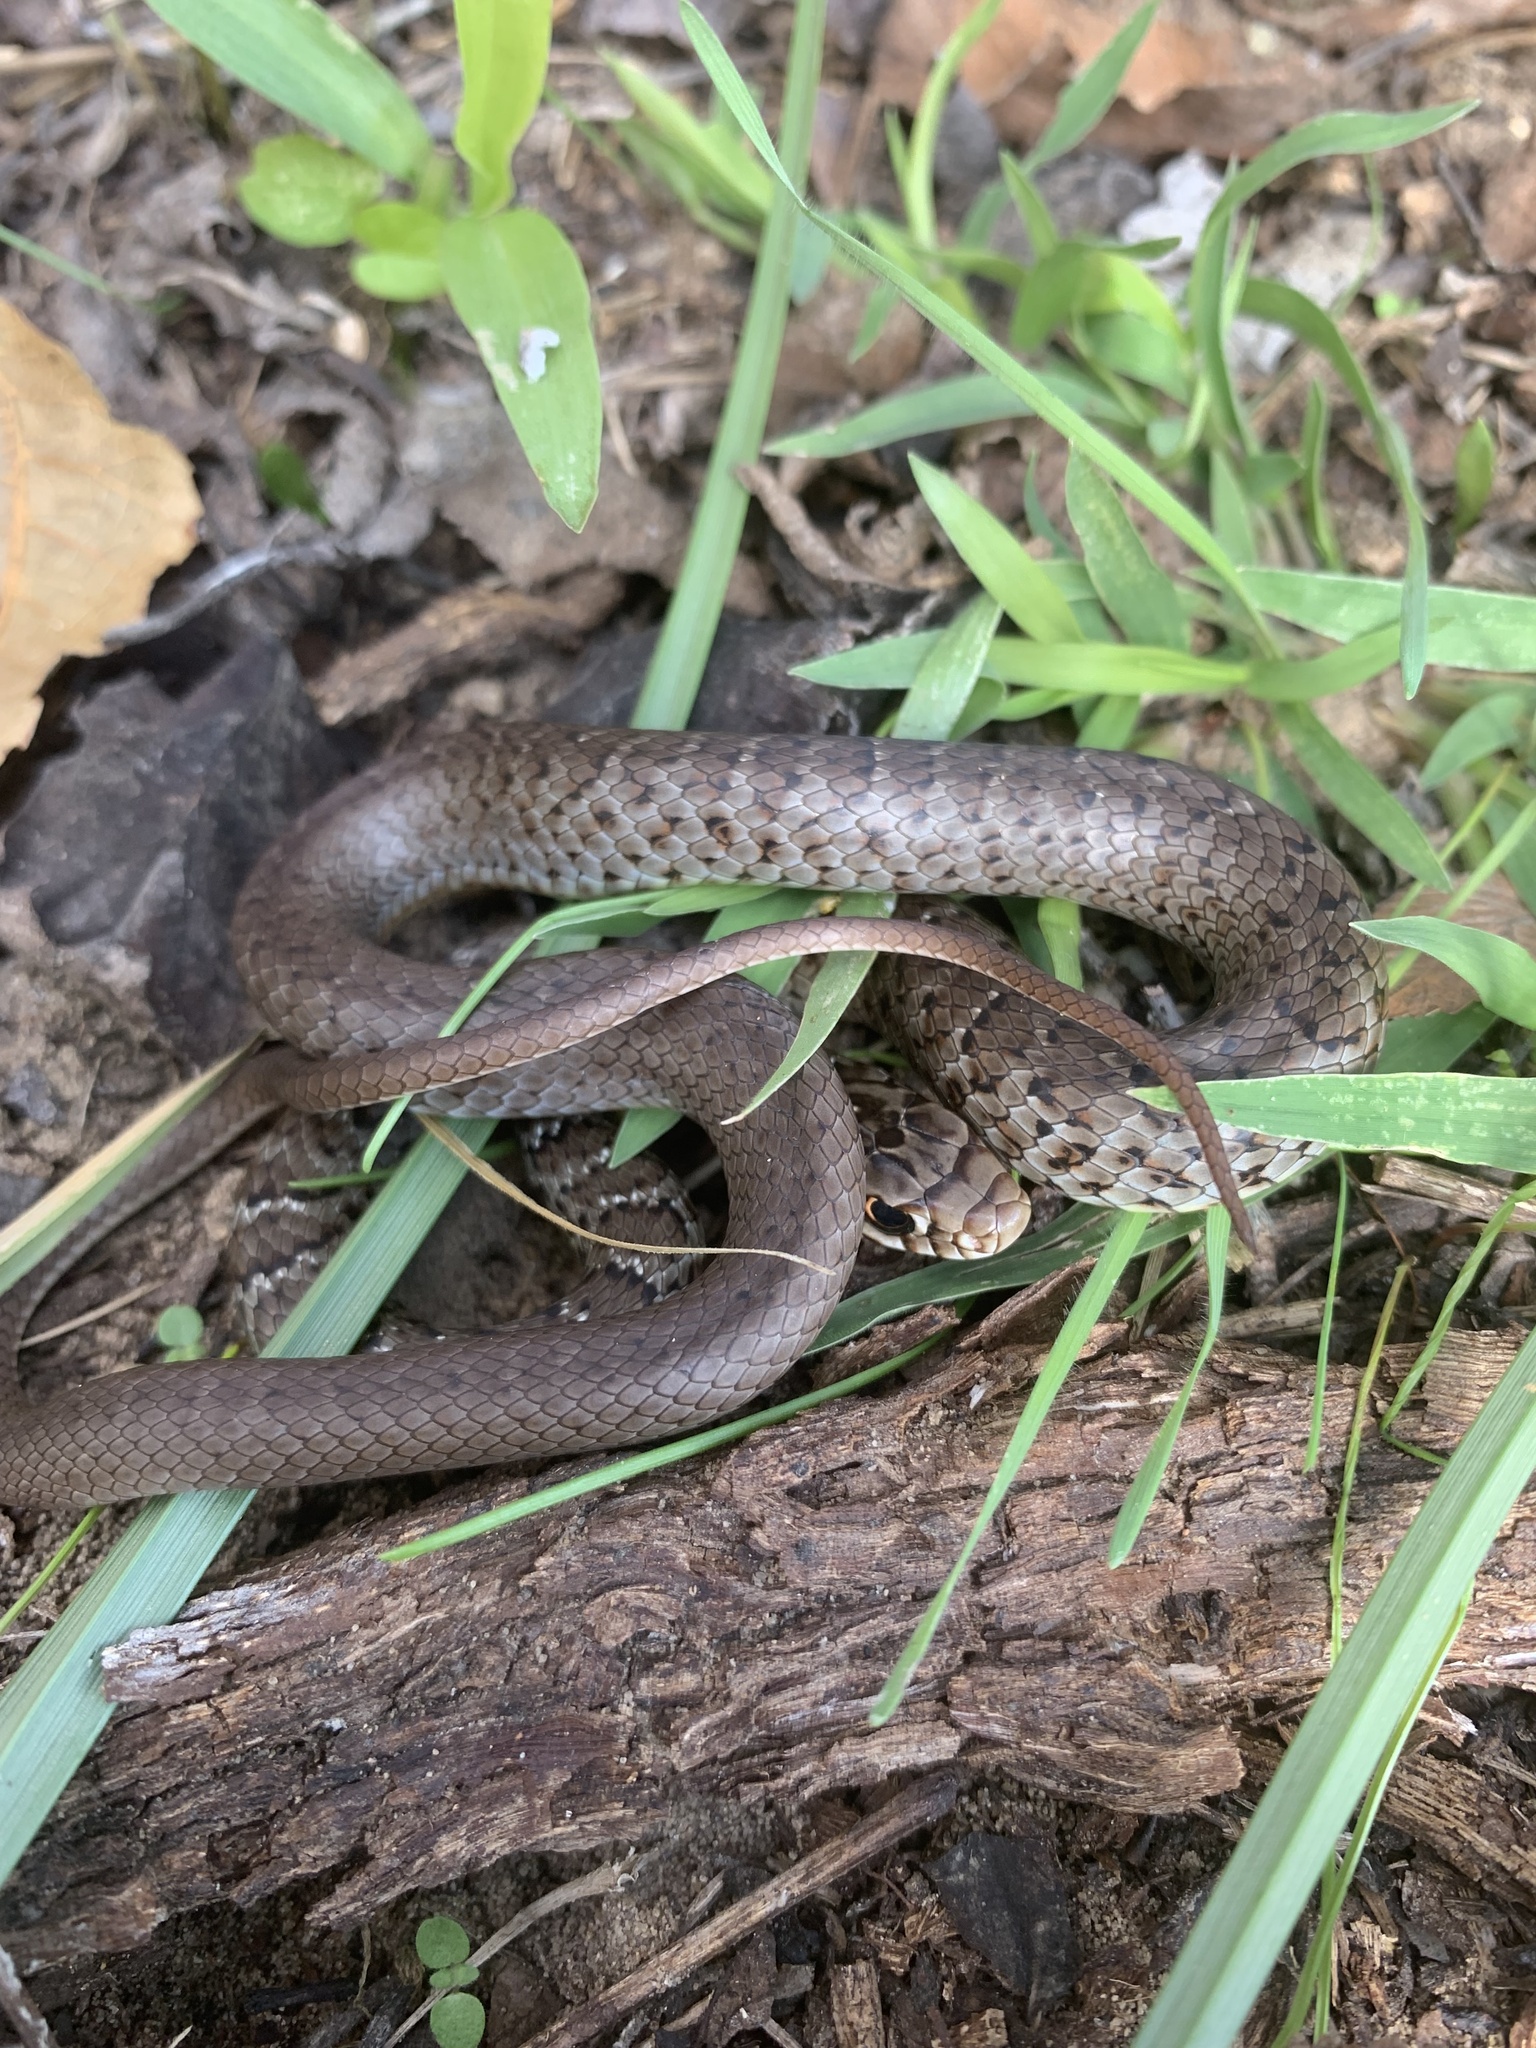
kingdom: Animalia
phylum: Chordata
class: Squamata
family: Colubridae
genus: Coluber
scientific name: Coluber constrictor
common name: Eastern racer
